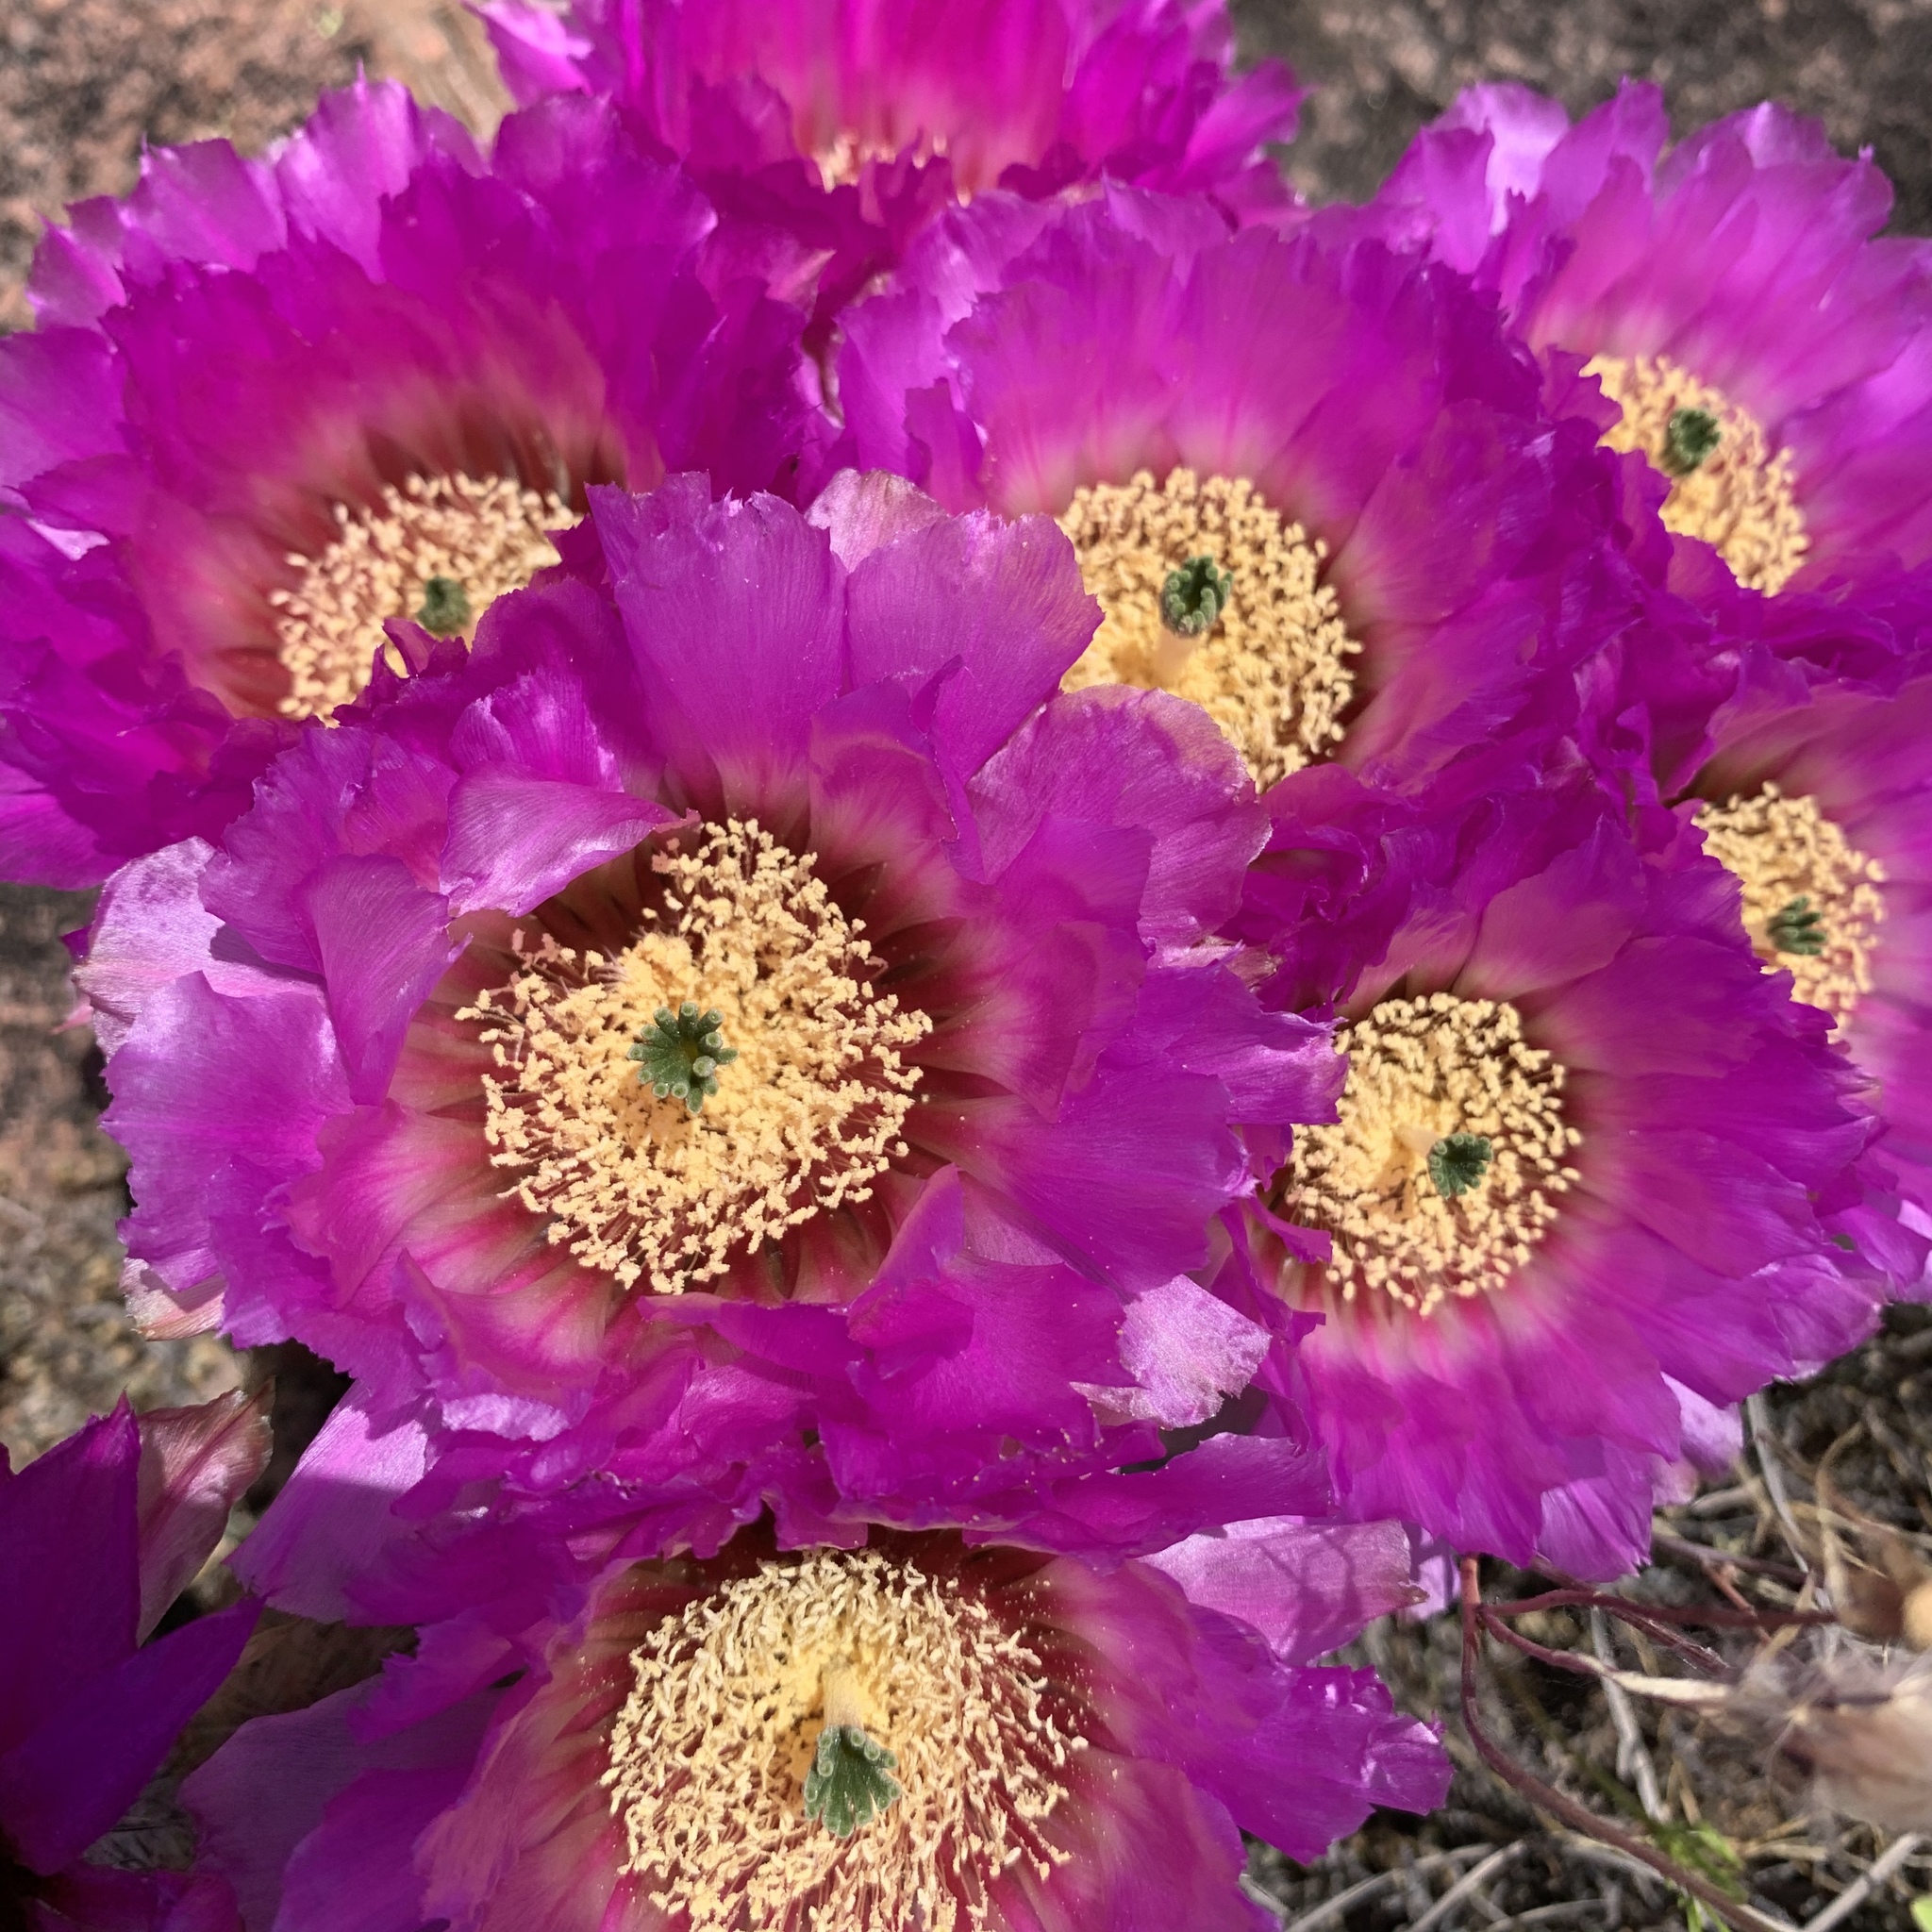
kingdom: Plantae
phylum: Tracheophyta
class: Magnoliopsida
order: Caryophyllales
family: Cactaceae
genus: Echinocereus
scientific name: Echinocereus reichenbachii
